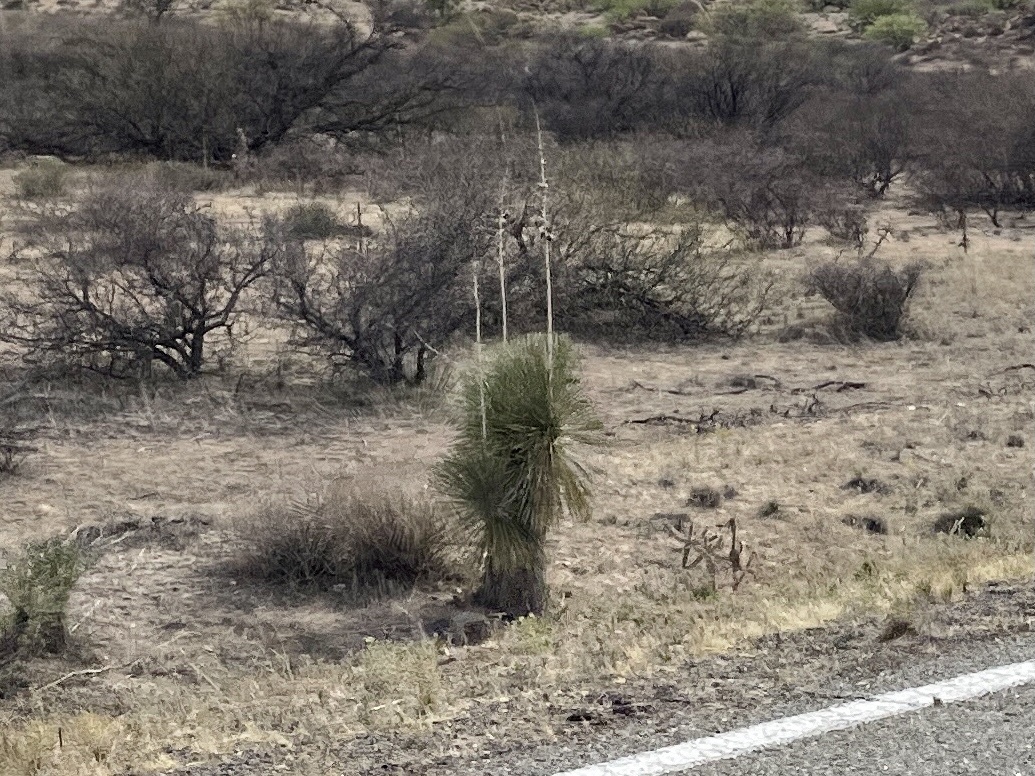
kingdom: Plantae
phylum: Tracheophyta
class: Liliopsida
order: Asparagales
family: Asparagaceae
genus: Yucca
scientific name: Yucca elata
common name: Palmella
